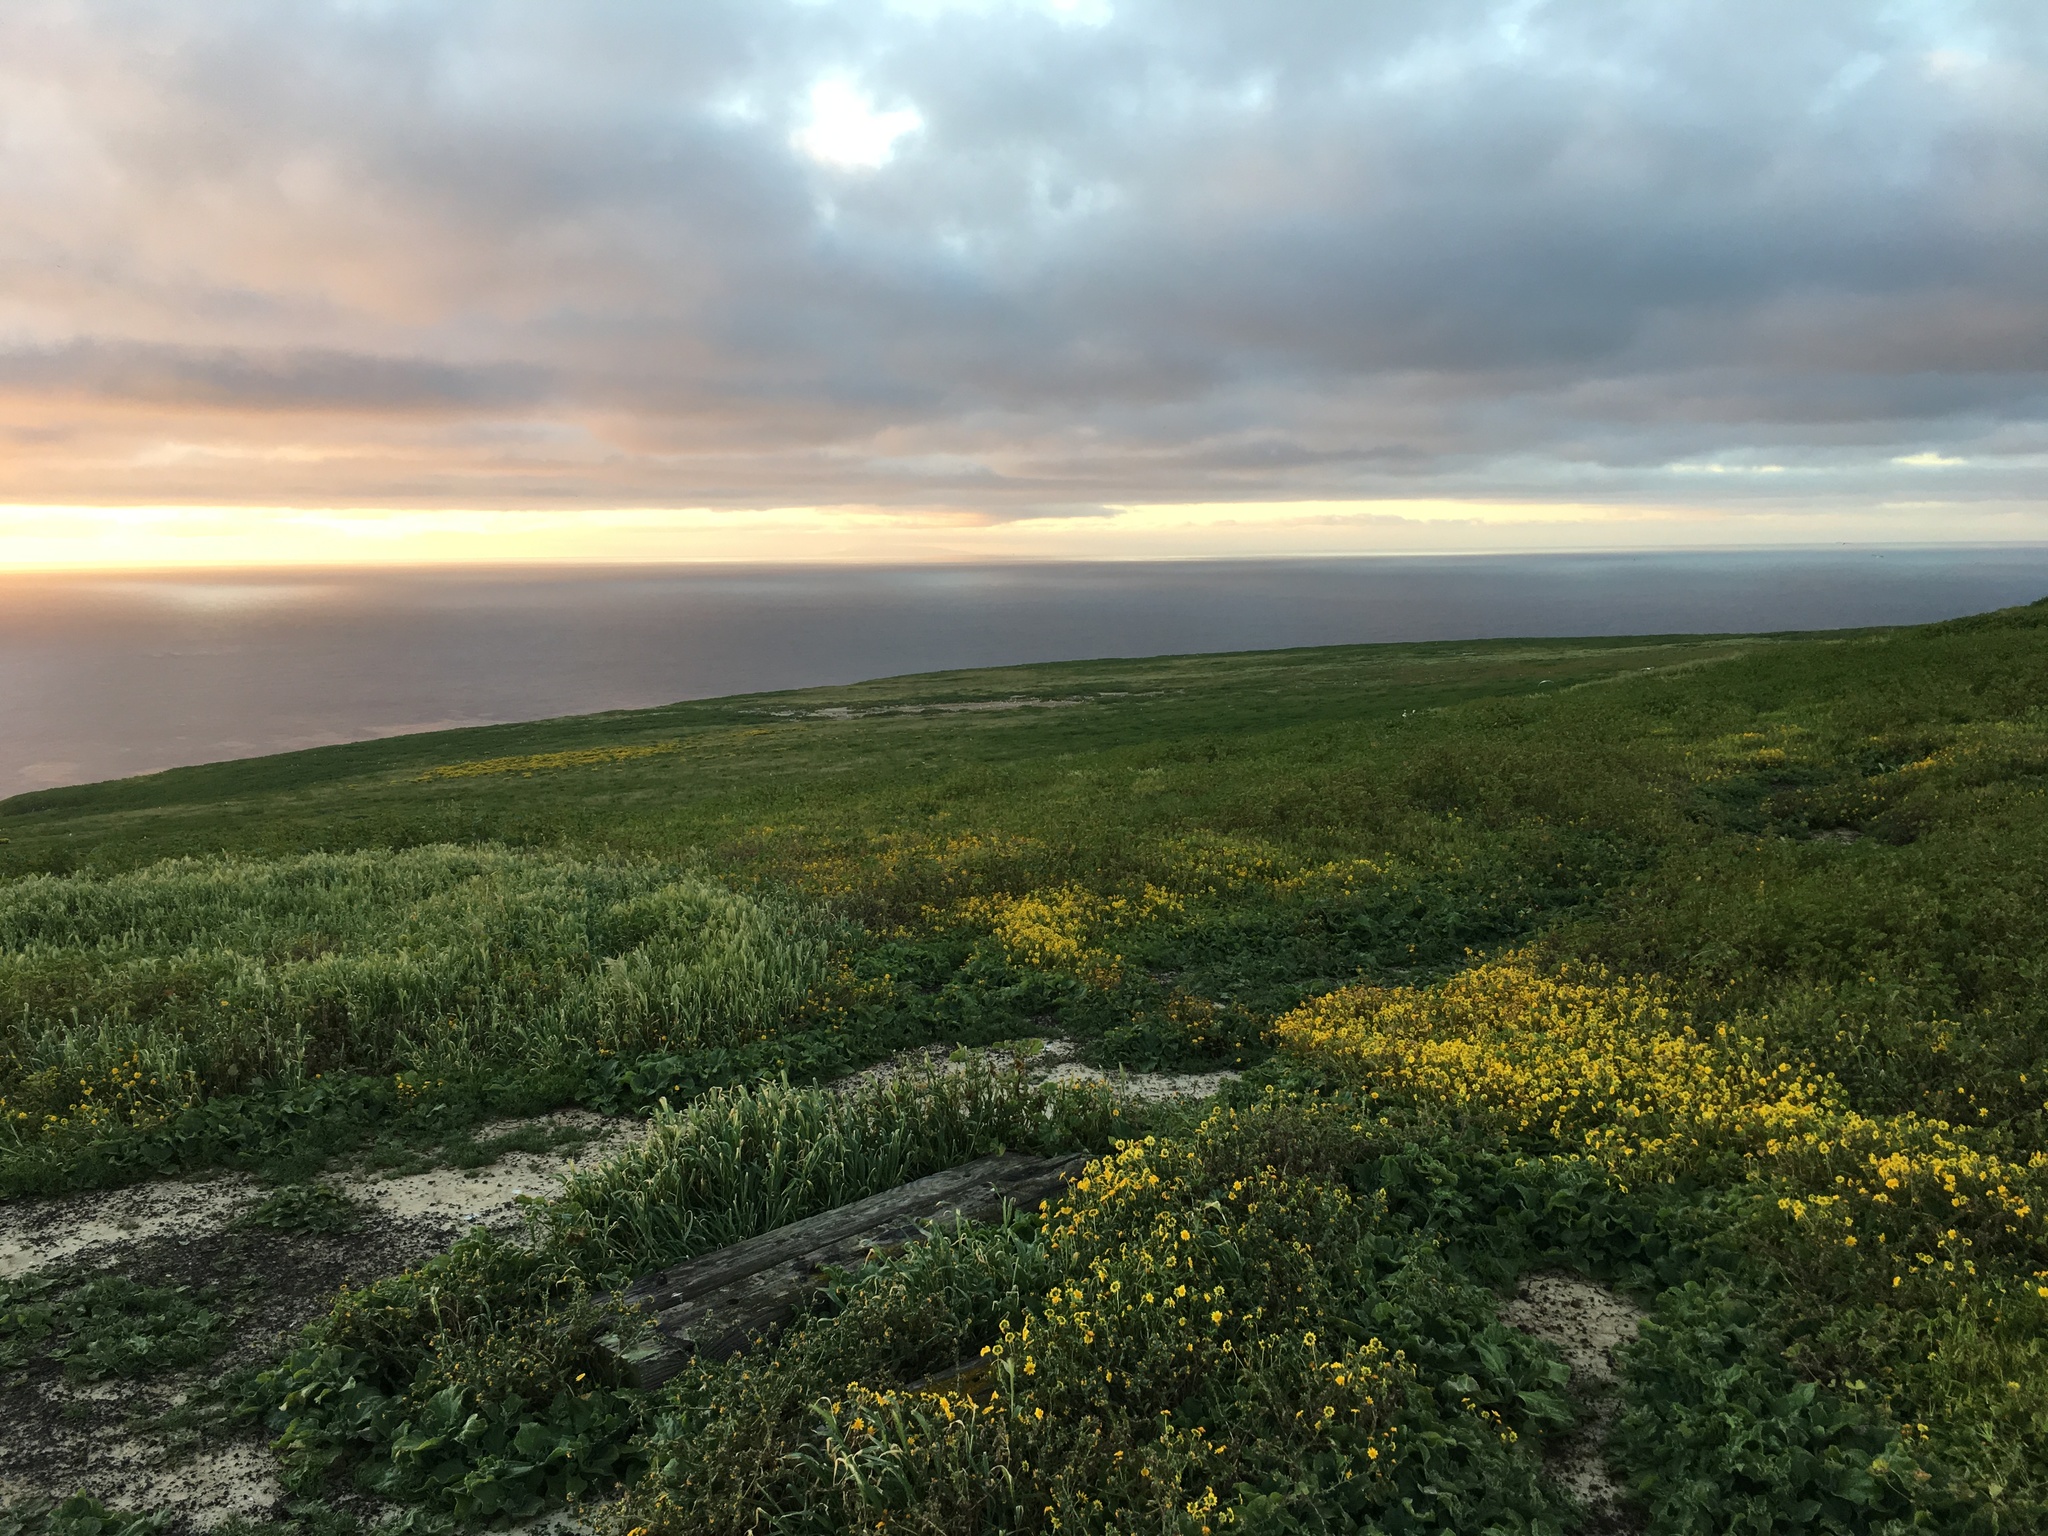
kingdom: Plantae
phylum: Tracheophyta
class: Magnoliopsida
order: Asterales
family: Asteraceae
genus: Lasthenia
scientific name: Lasthenia gracilis
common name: Common goldfields
